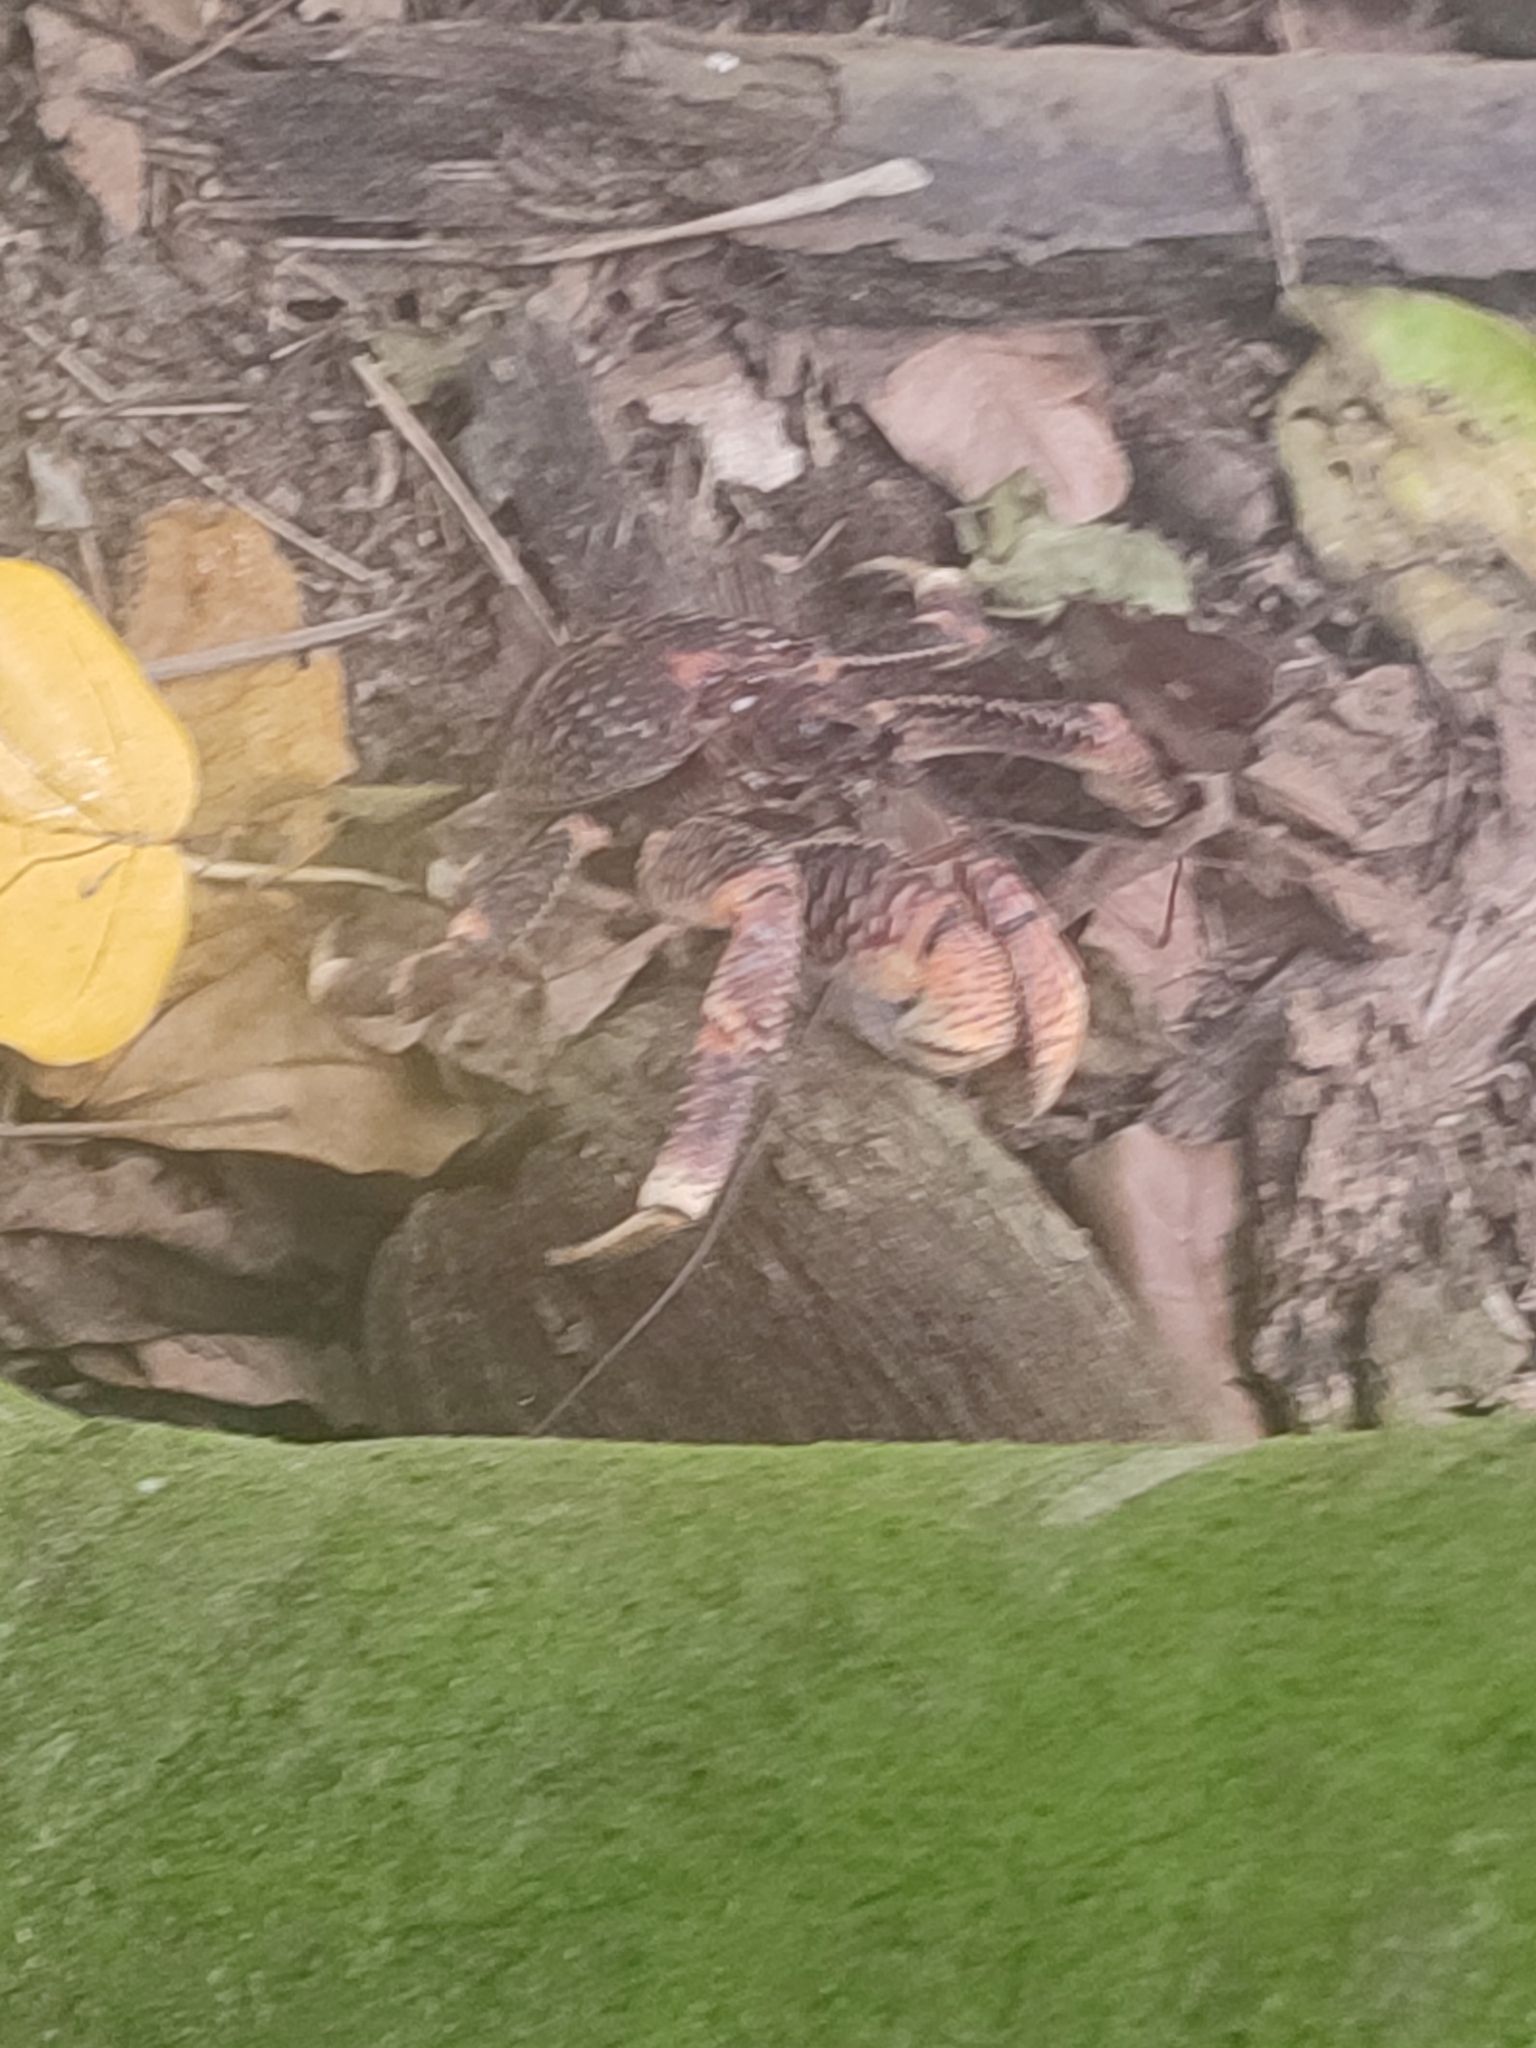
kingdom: Animalia
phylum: Arthropoda
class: Malacostraca
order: Decapoda
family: Coenobitidae
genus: Birgus
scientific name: Birgus latro
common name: Coconut crab
